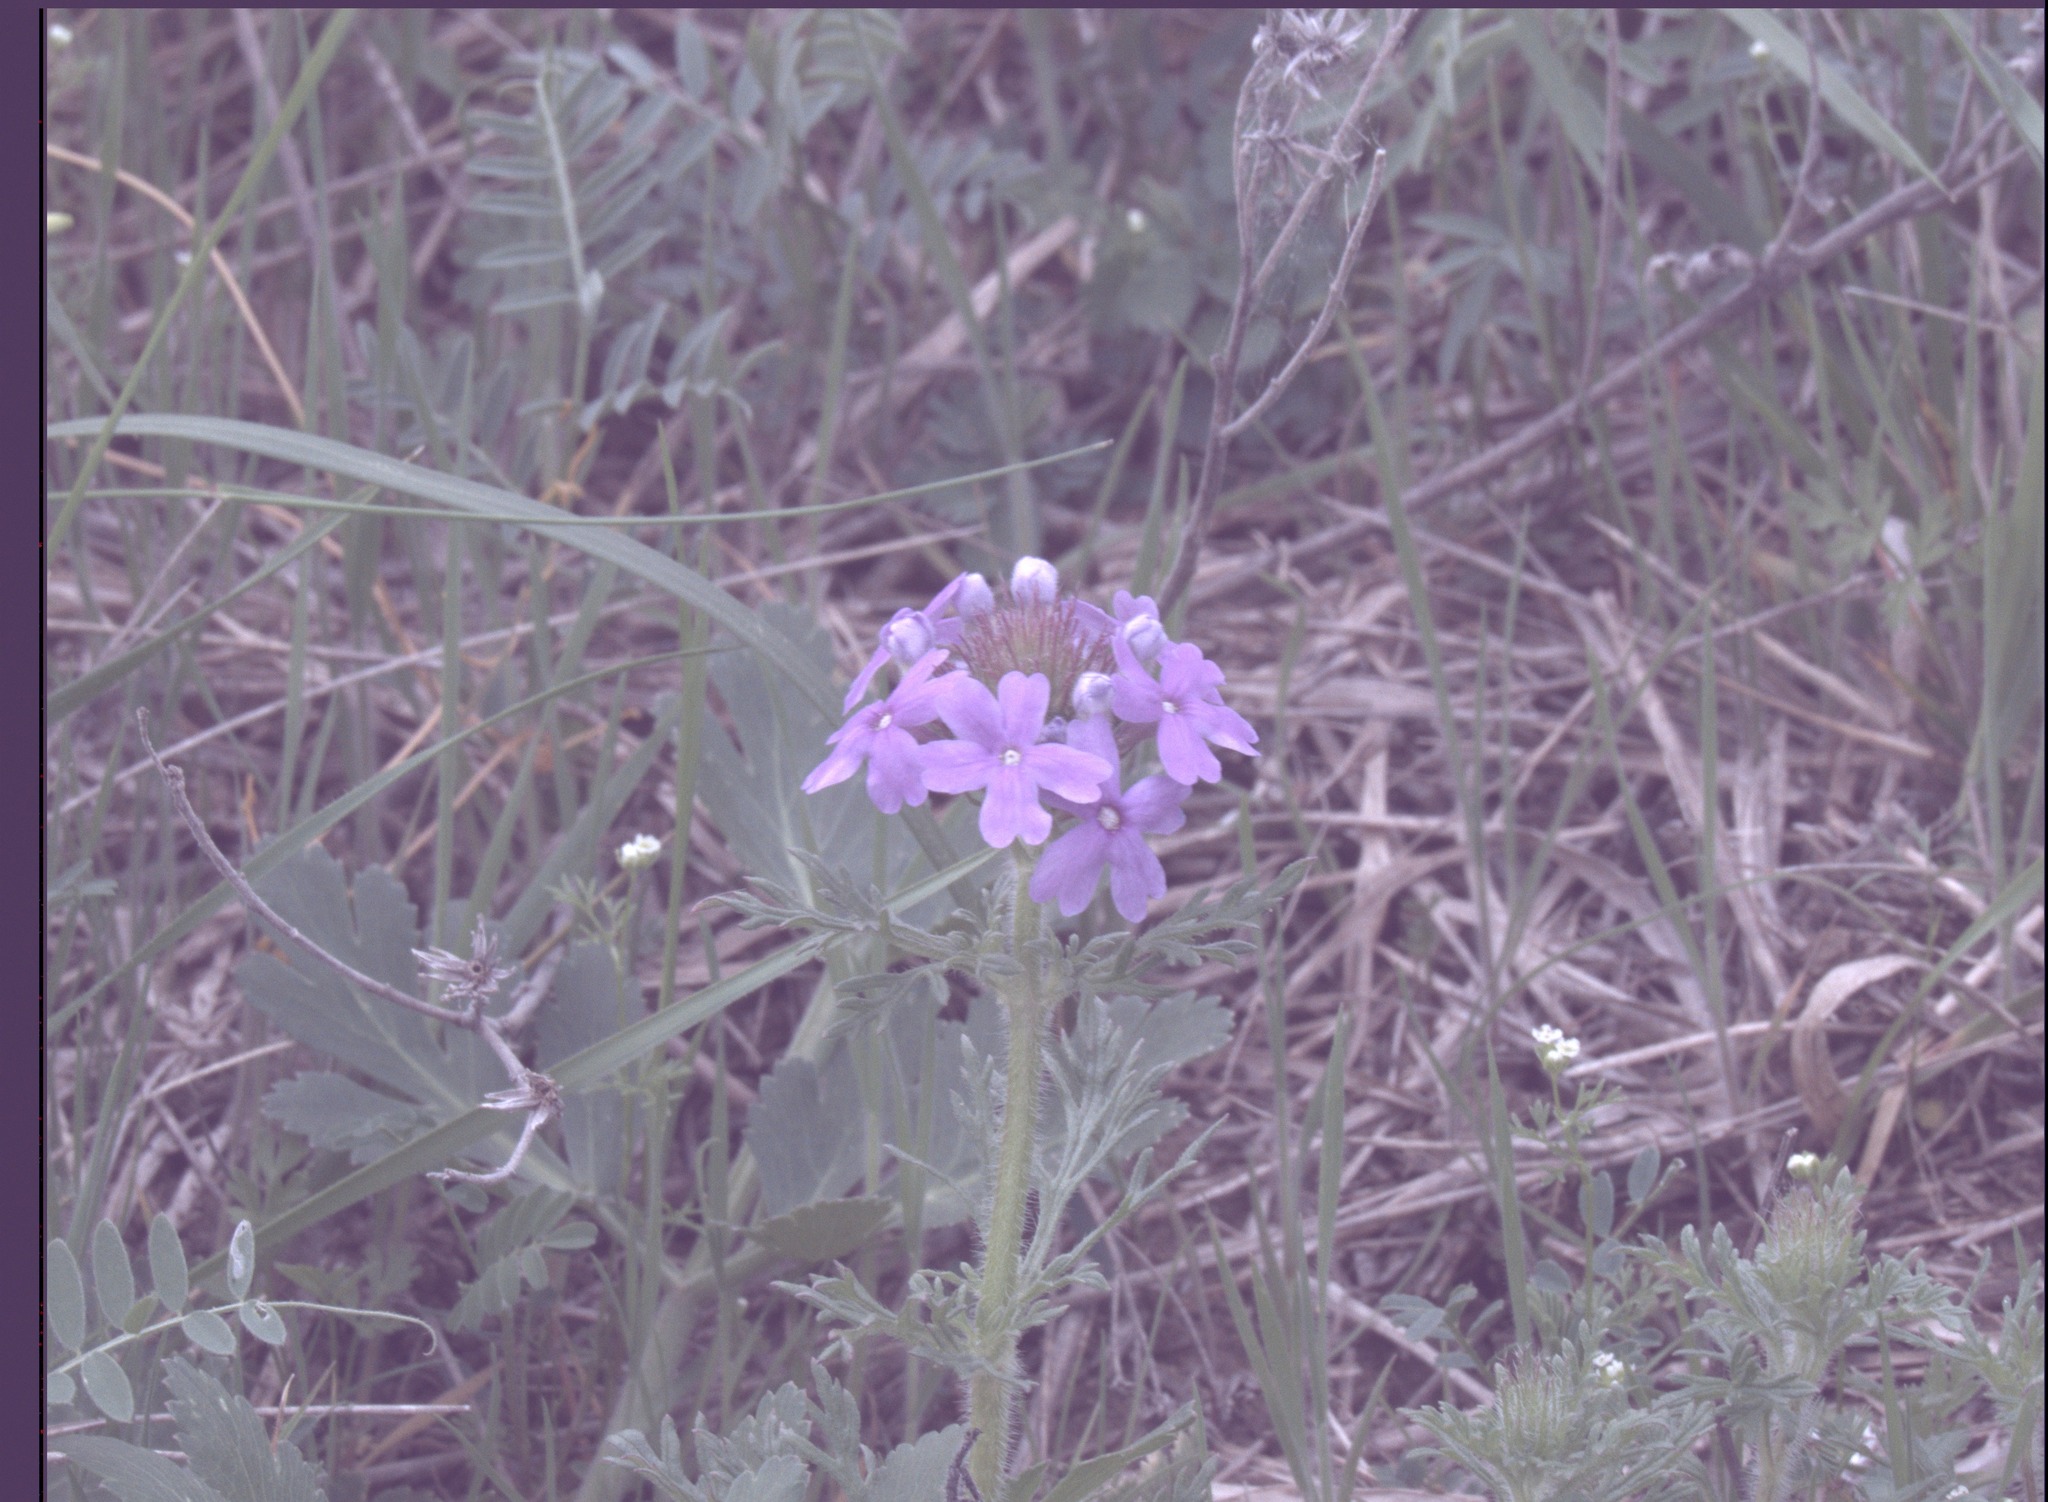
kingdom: Plantae
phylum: Tracheophyta
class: Magnoliopsida
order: Lamiales
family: Verbenaceae
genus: Verbena
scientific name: Verbena bipinnatifida
